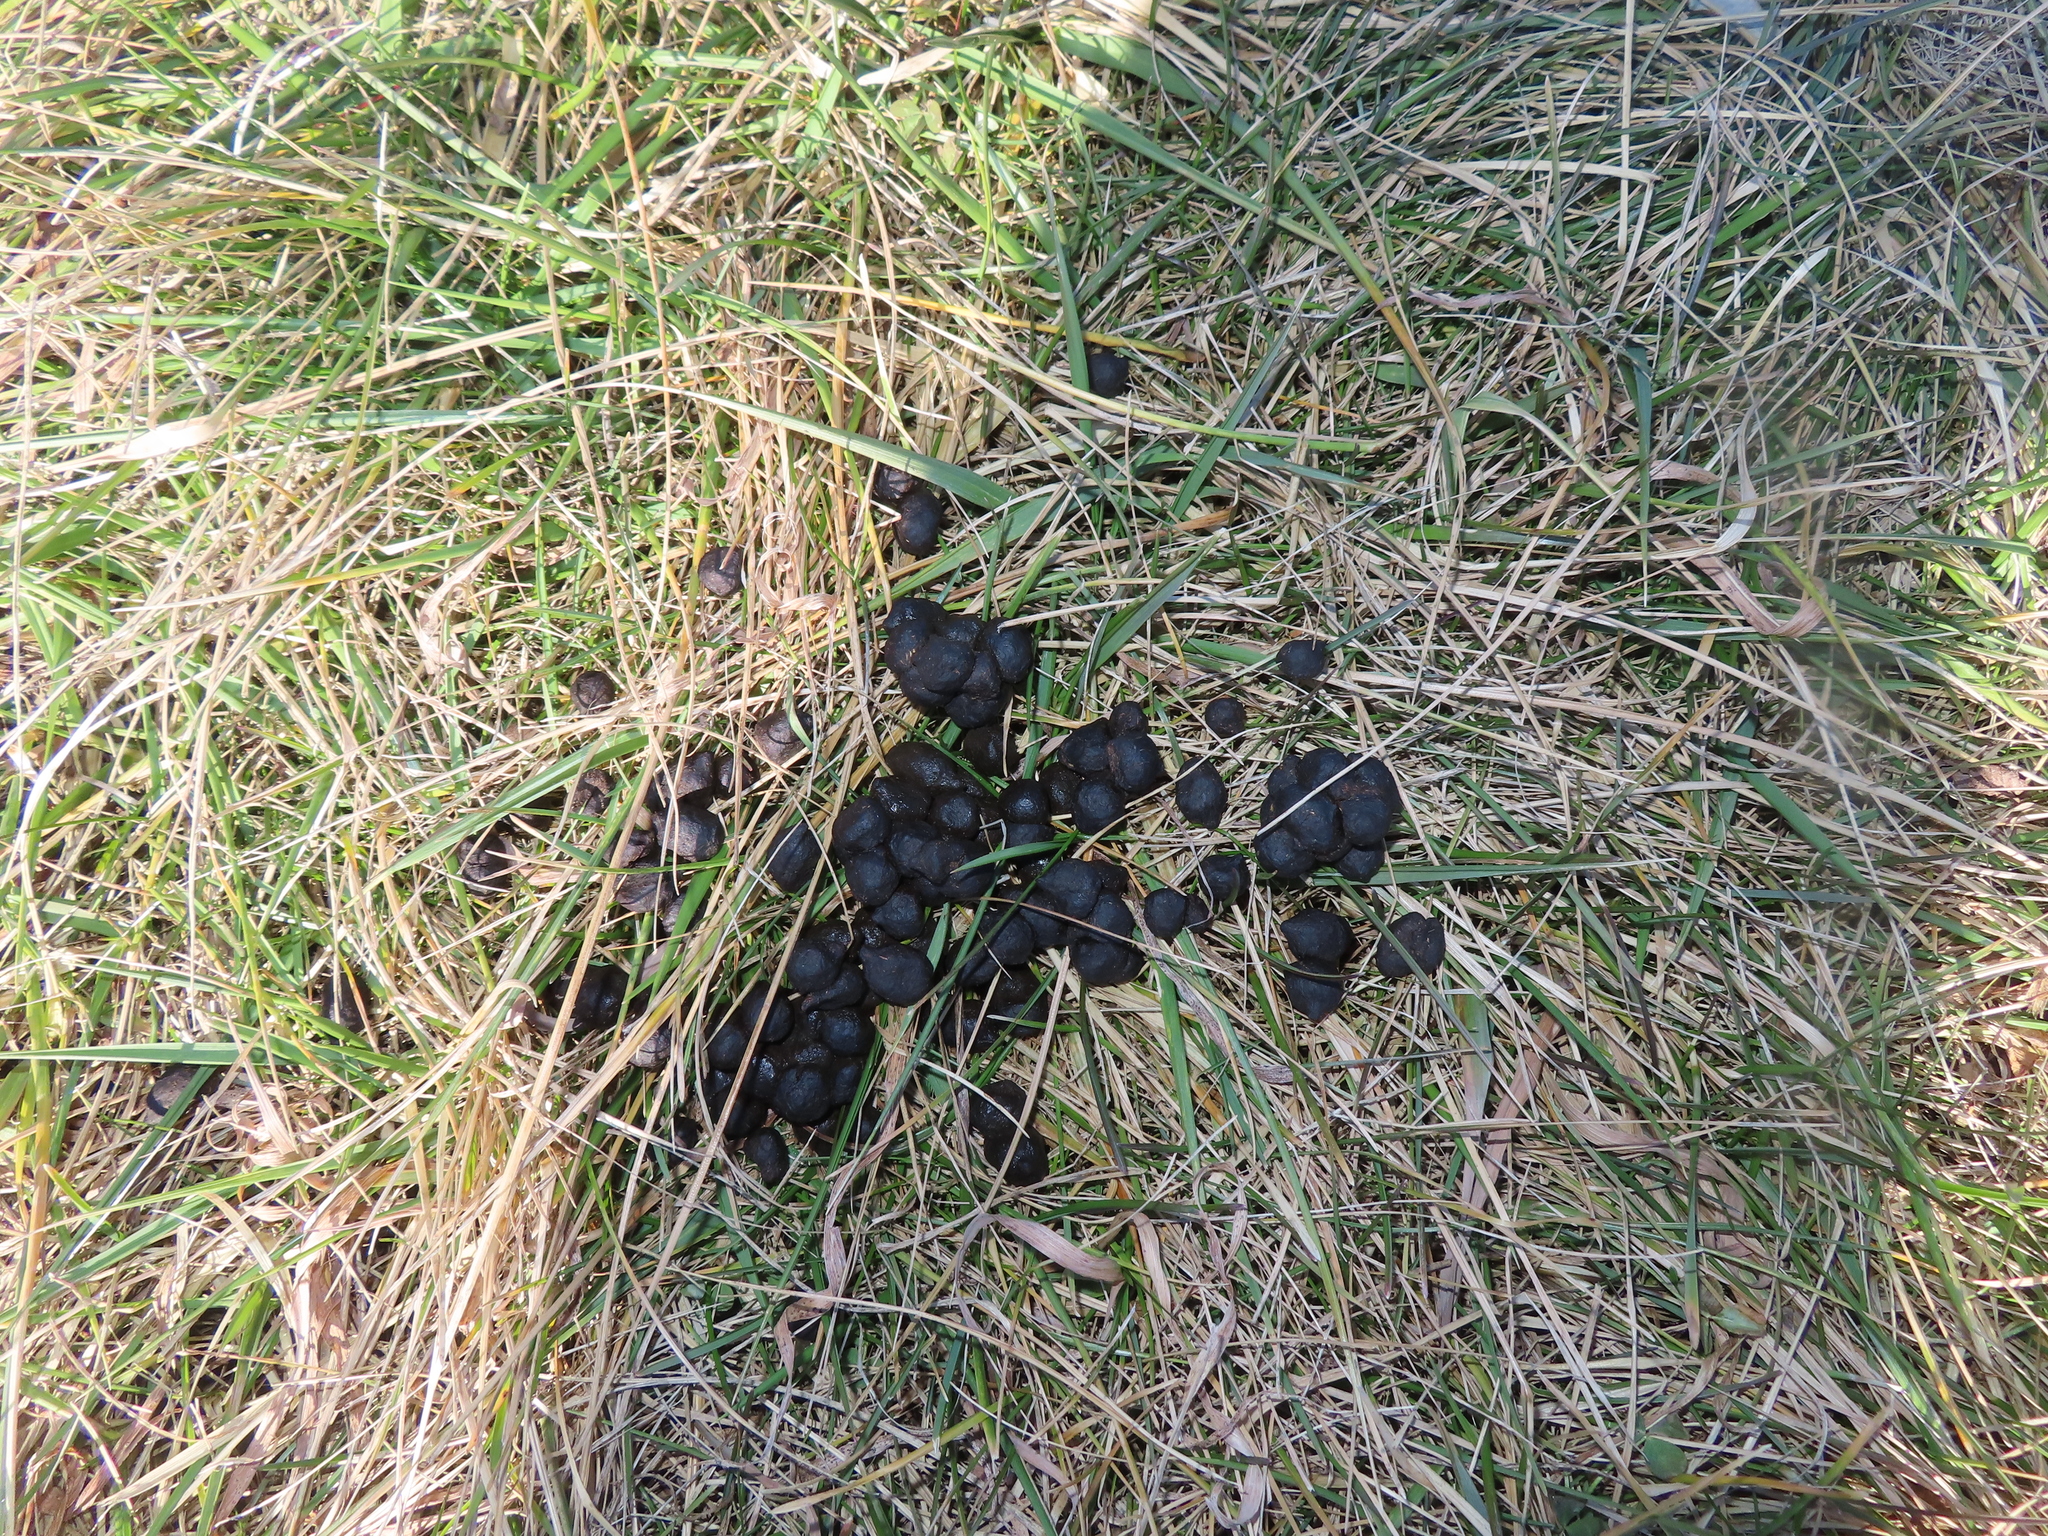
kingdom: Animalia
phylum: Chordata
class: Mammalia
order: Artiodactyla
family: Cervidae
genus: Odocoileus
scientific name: Odocoileus virginianus
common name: White-tailed deer
